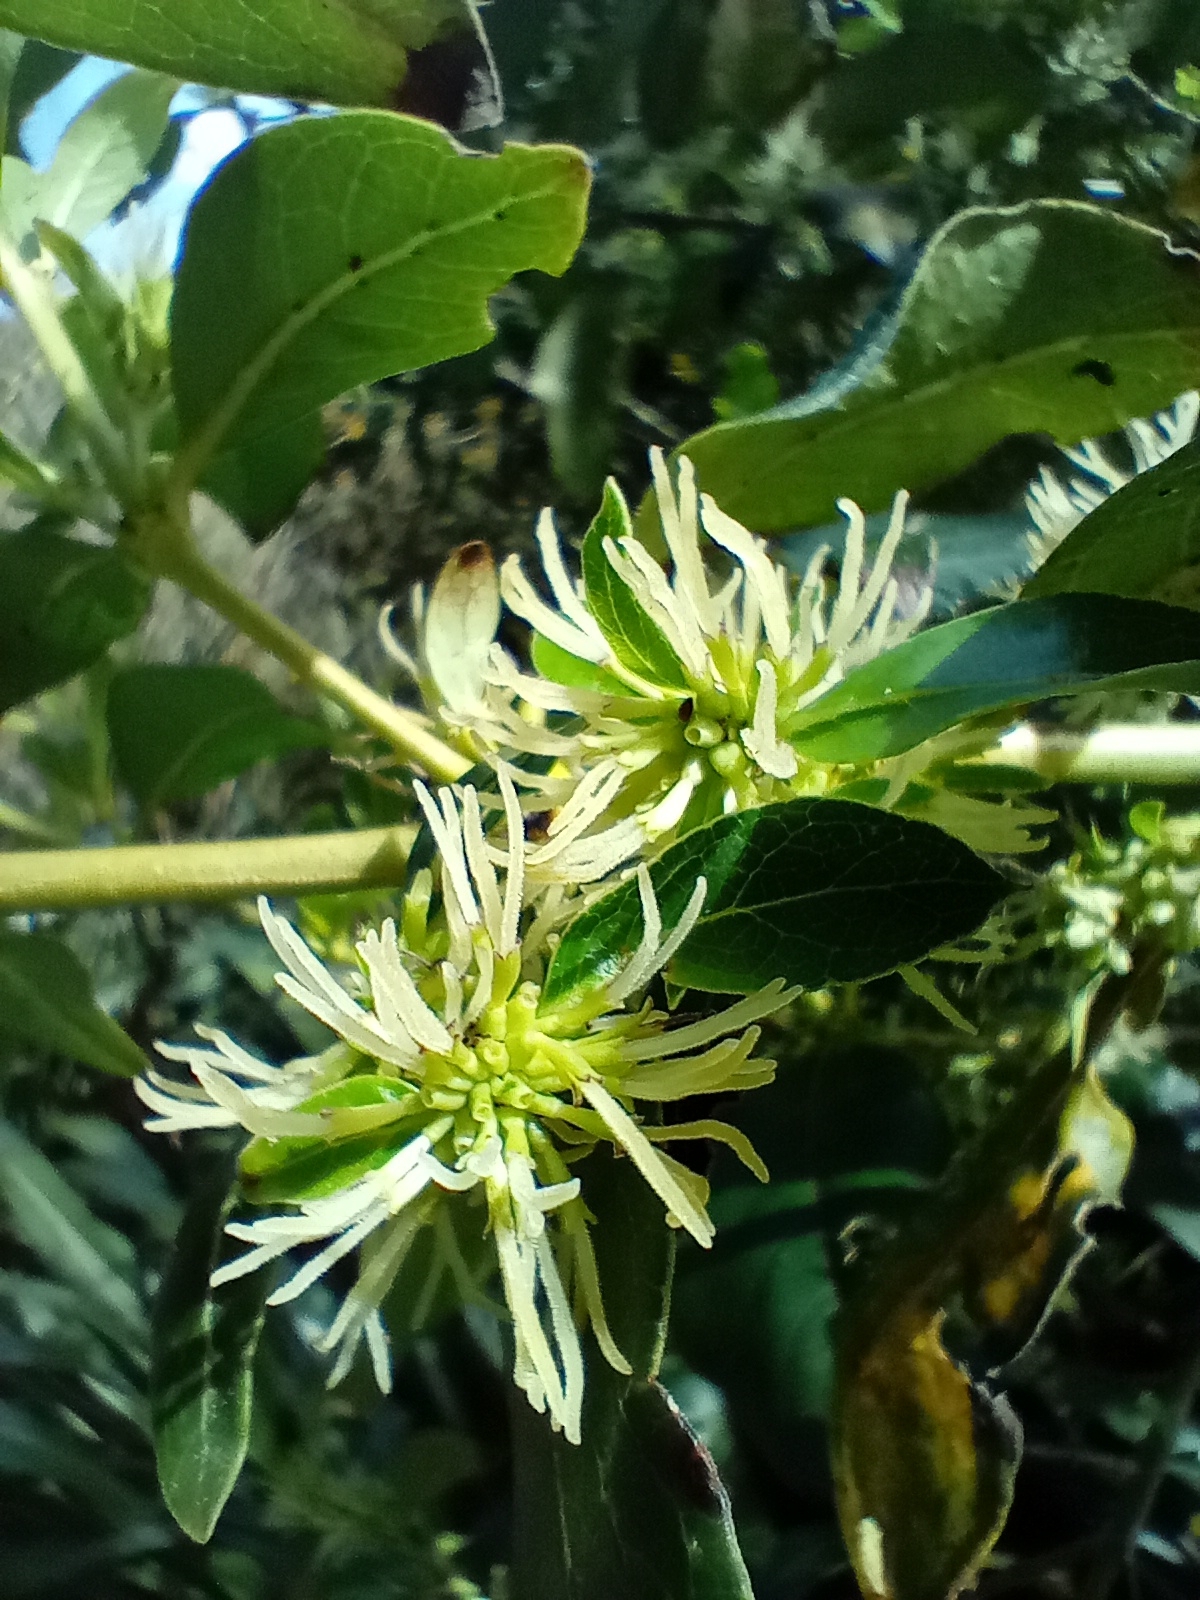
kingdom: Plantae
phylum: Tracheophyta
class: Magnoliopsida
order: Gentianales
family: Rubiaceae
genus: Coprosma
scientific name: Coprosma robusta
